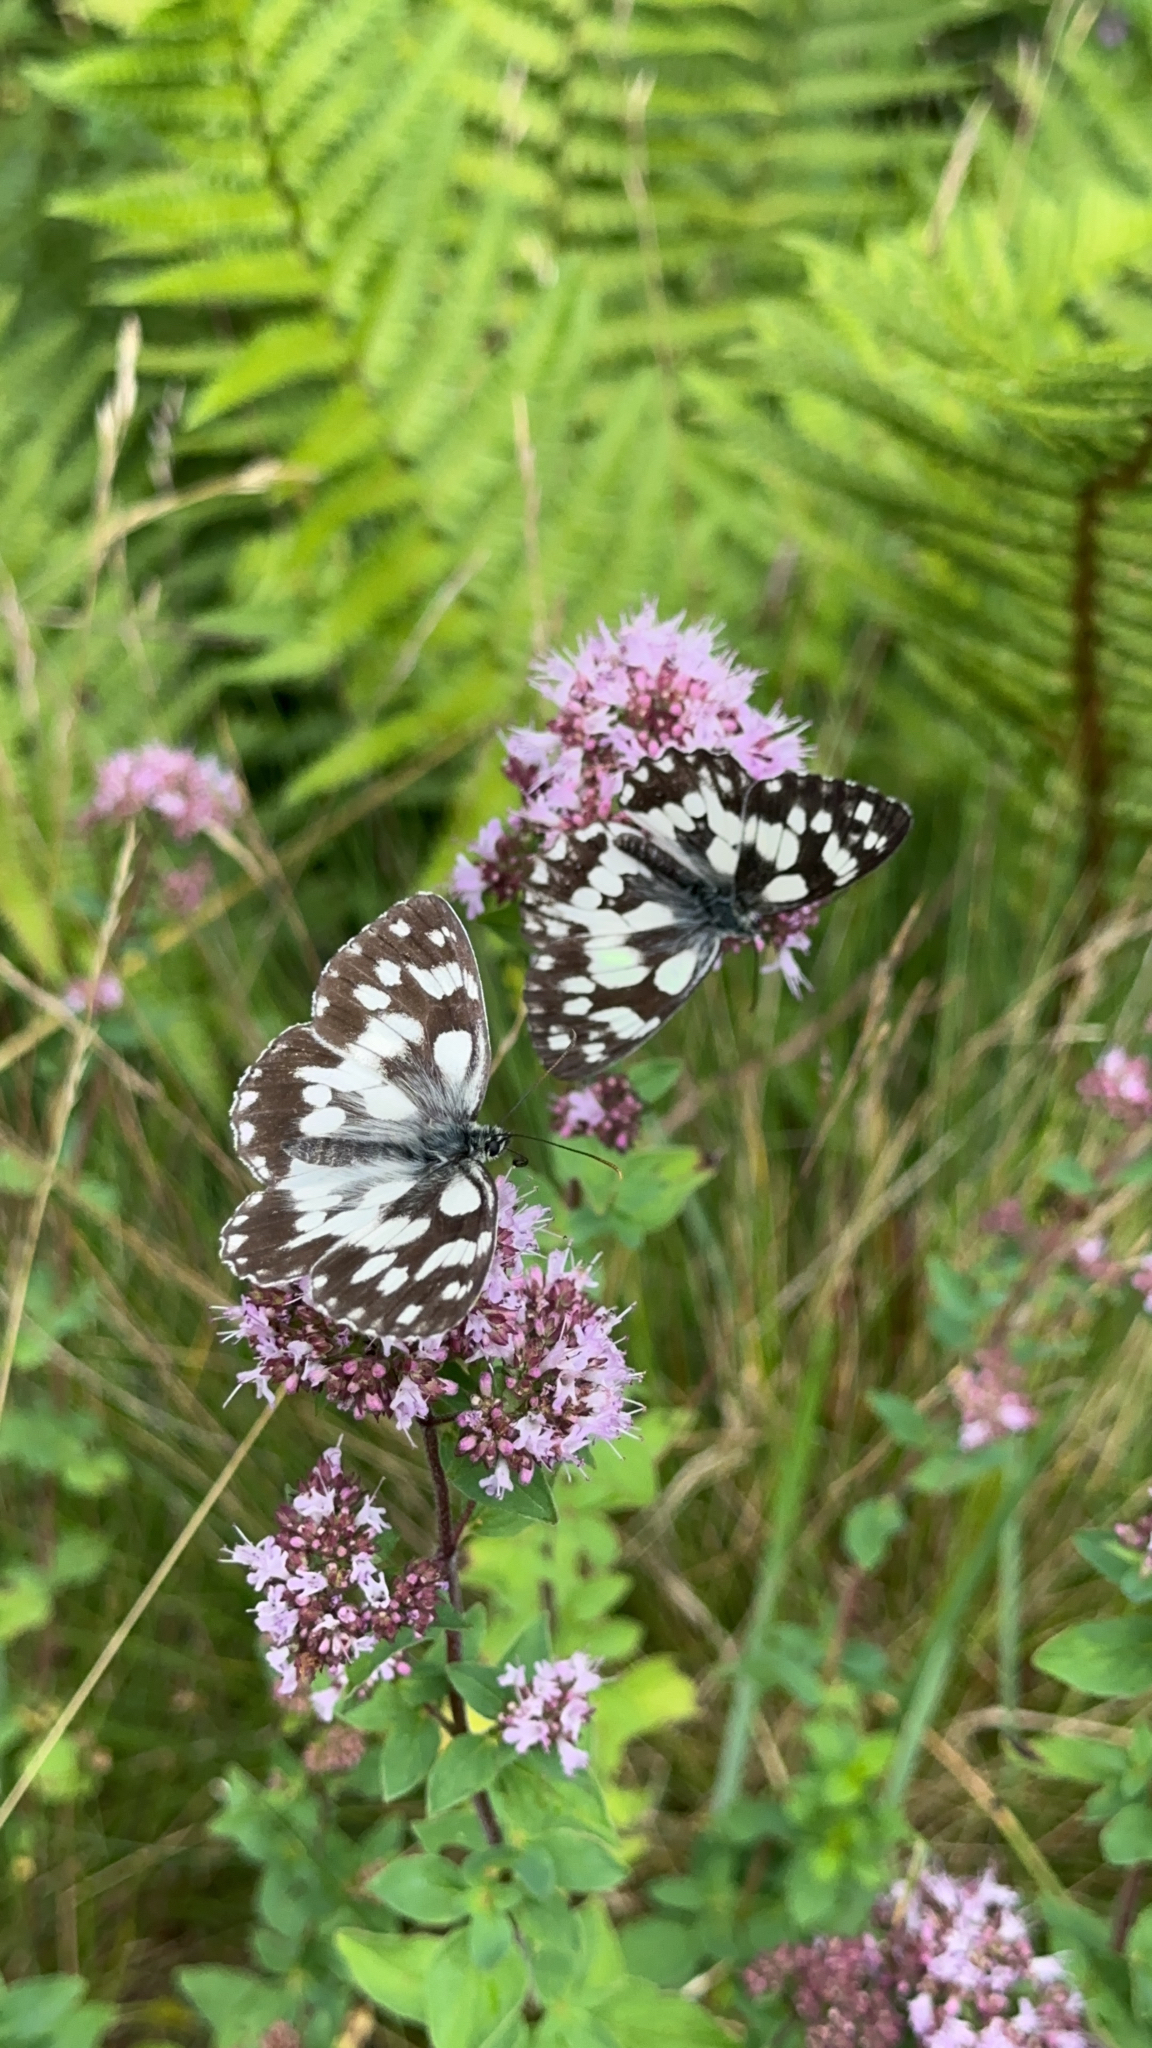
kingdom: Animalia
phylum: Arthropoda
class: Insecta
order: Lepidoptera
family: Nymphalidae
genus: Melanargia
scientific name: Melanargia galathea
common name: Marbled white
